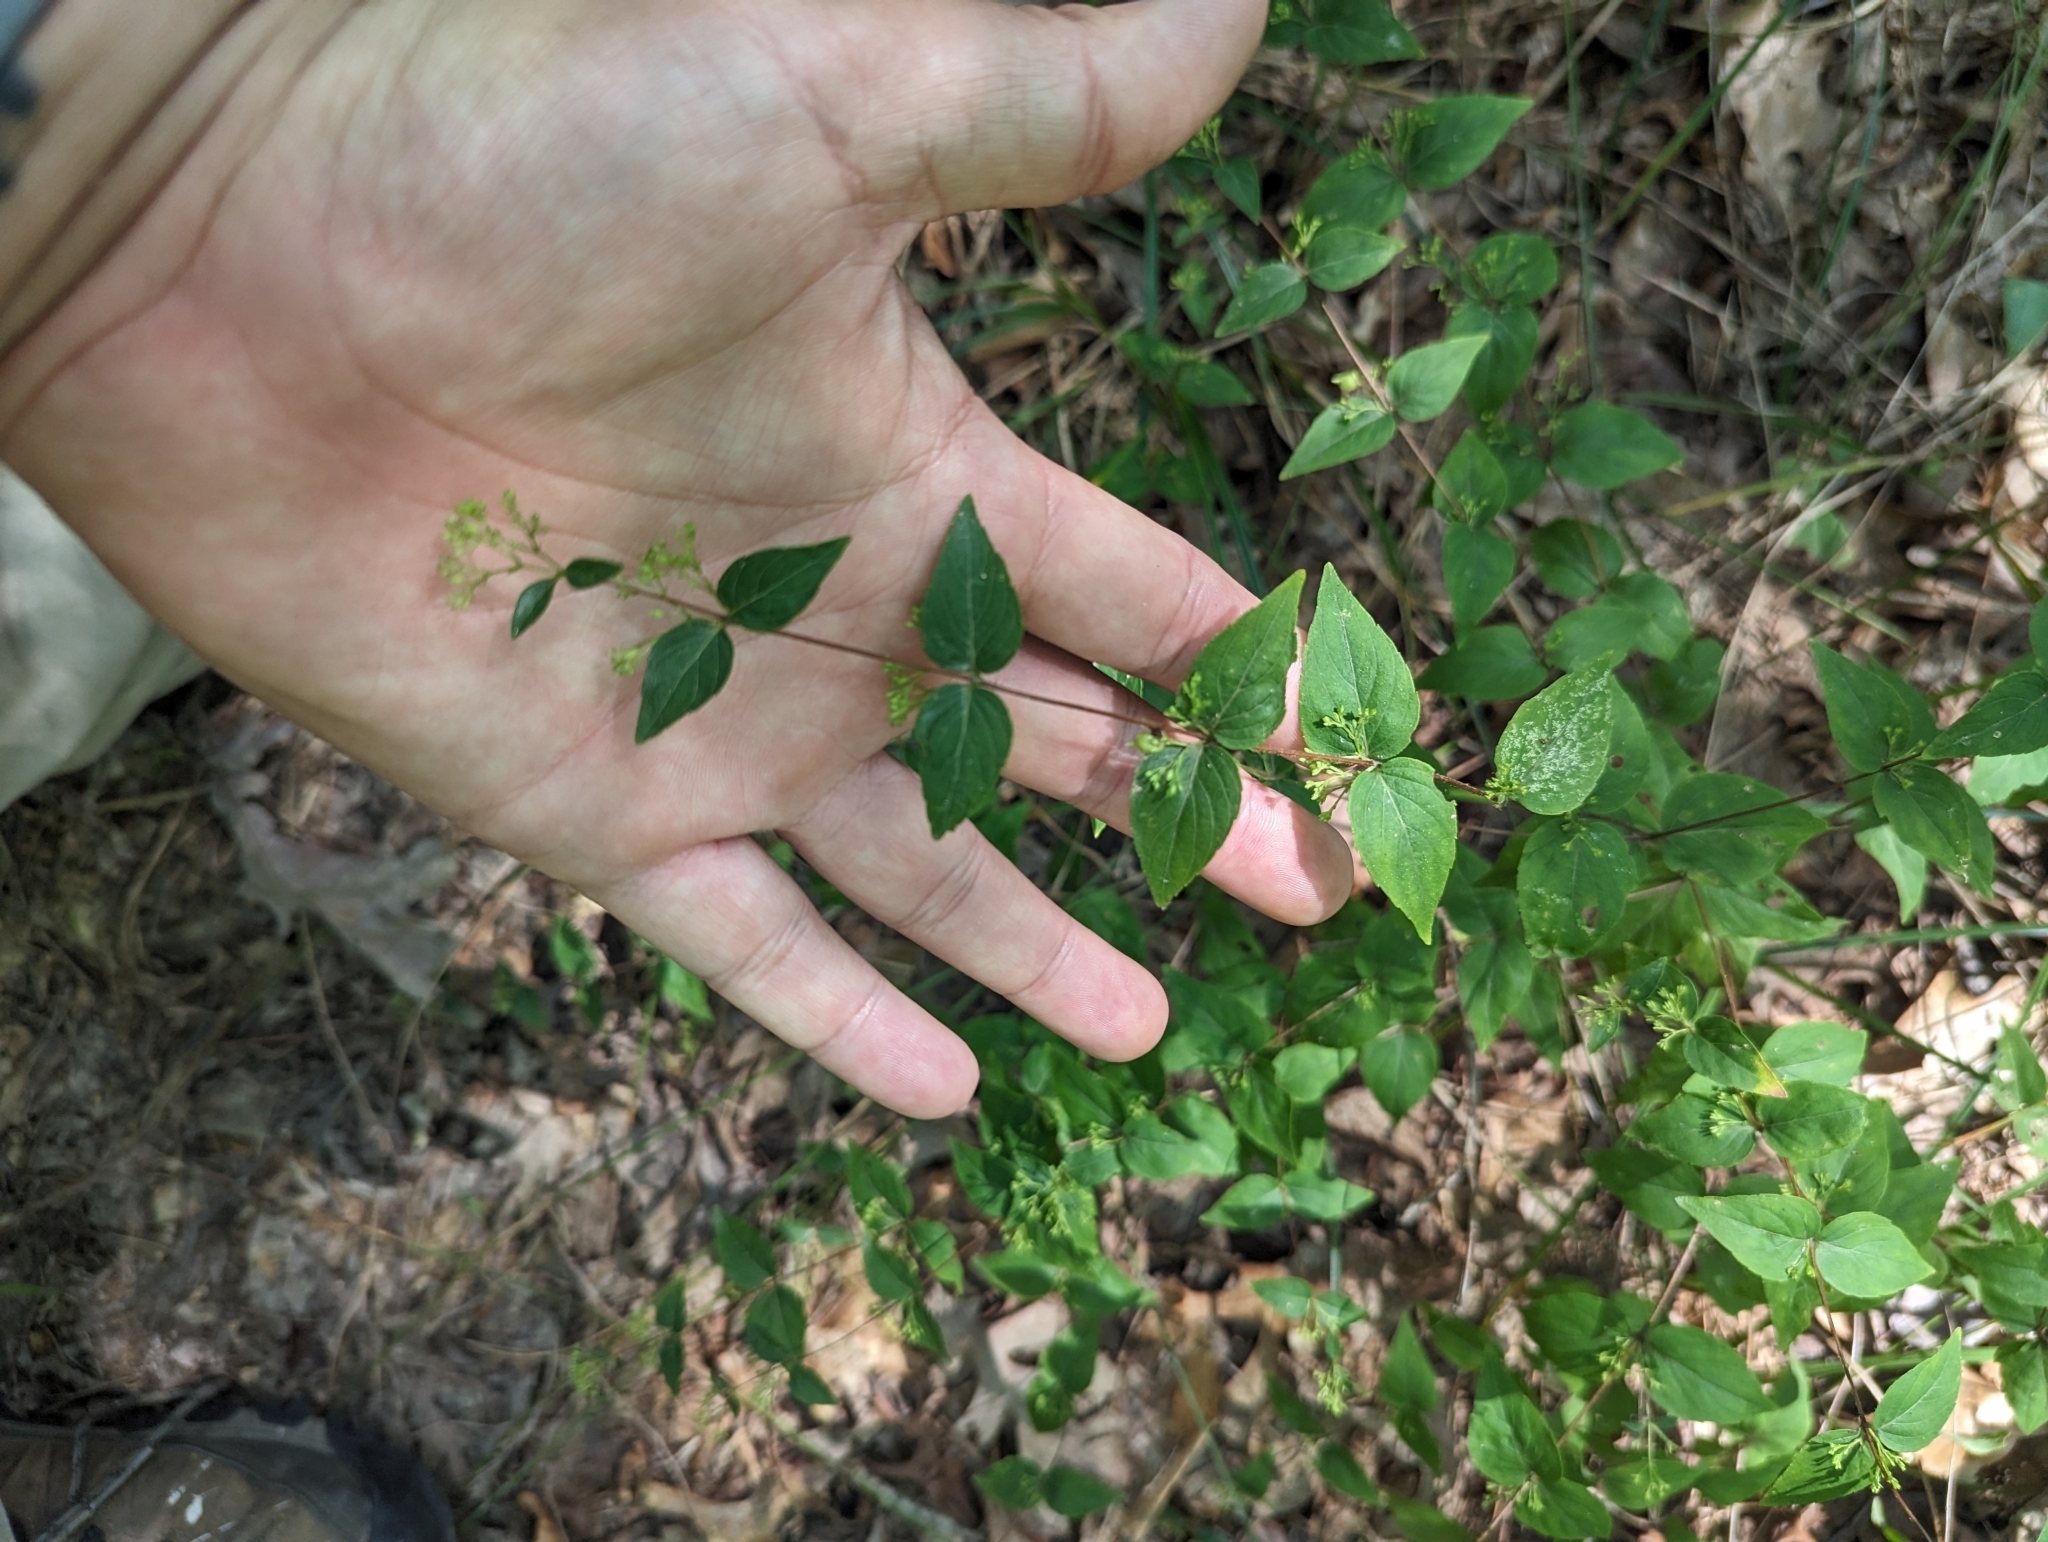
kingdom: Plantae
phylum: Tracheophyta
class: Magnoliopsida
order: Lamiales
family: Lamiaceae
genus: Cunila
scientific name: Cunila origanoides
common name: American dittany
